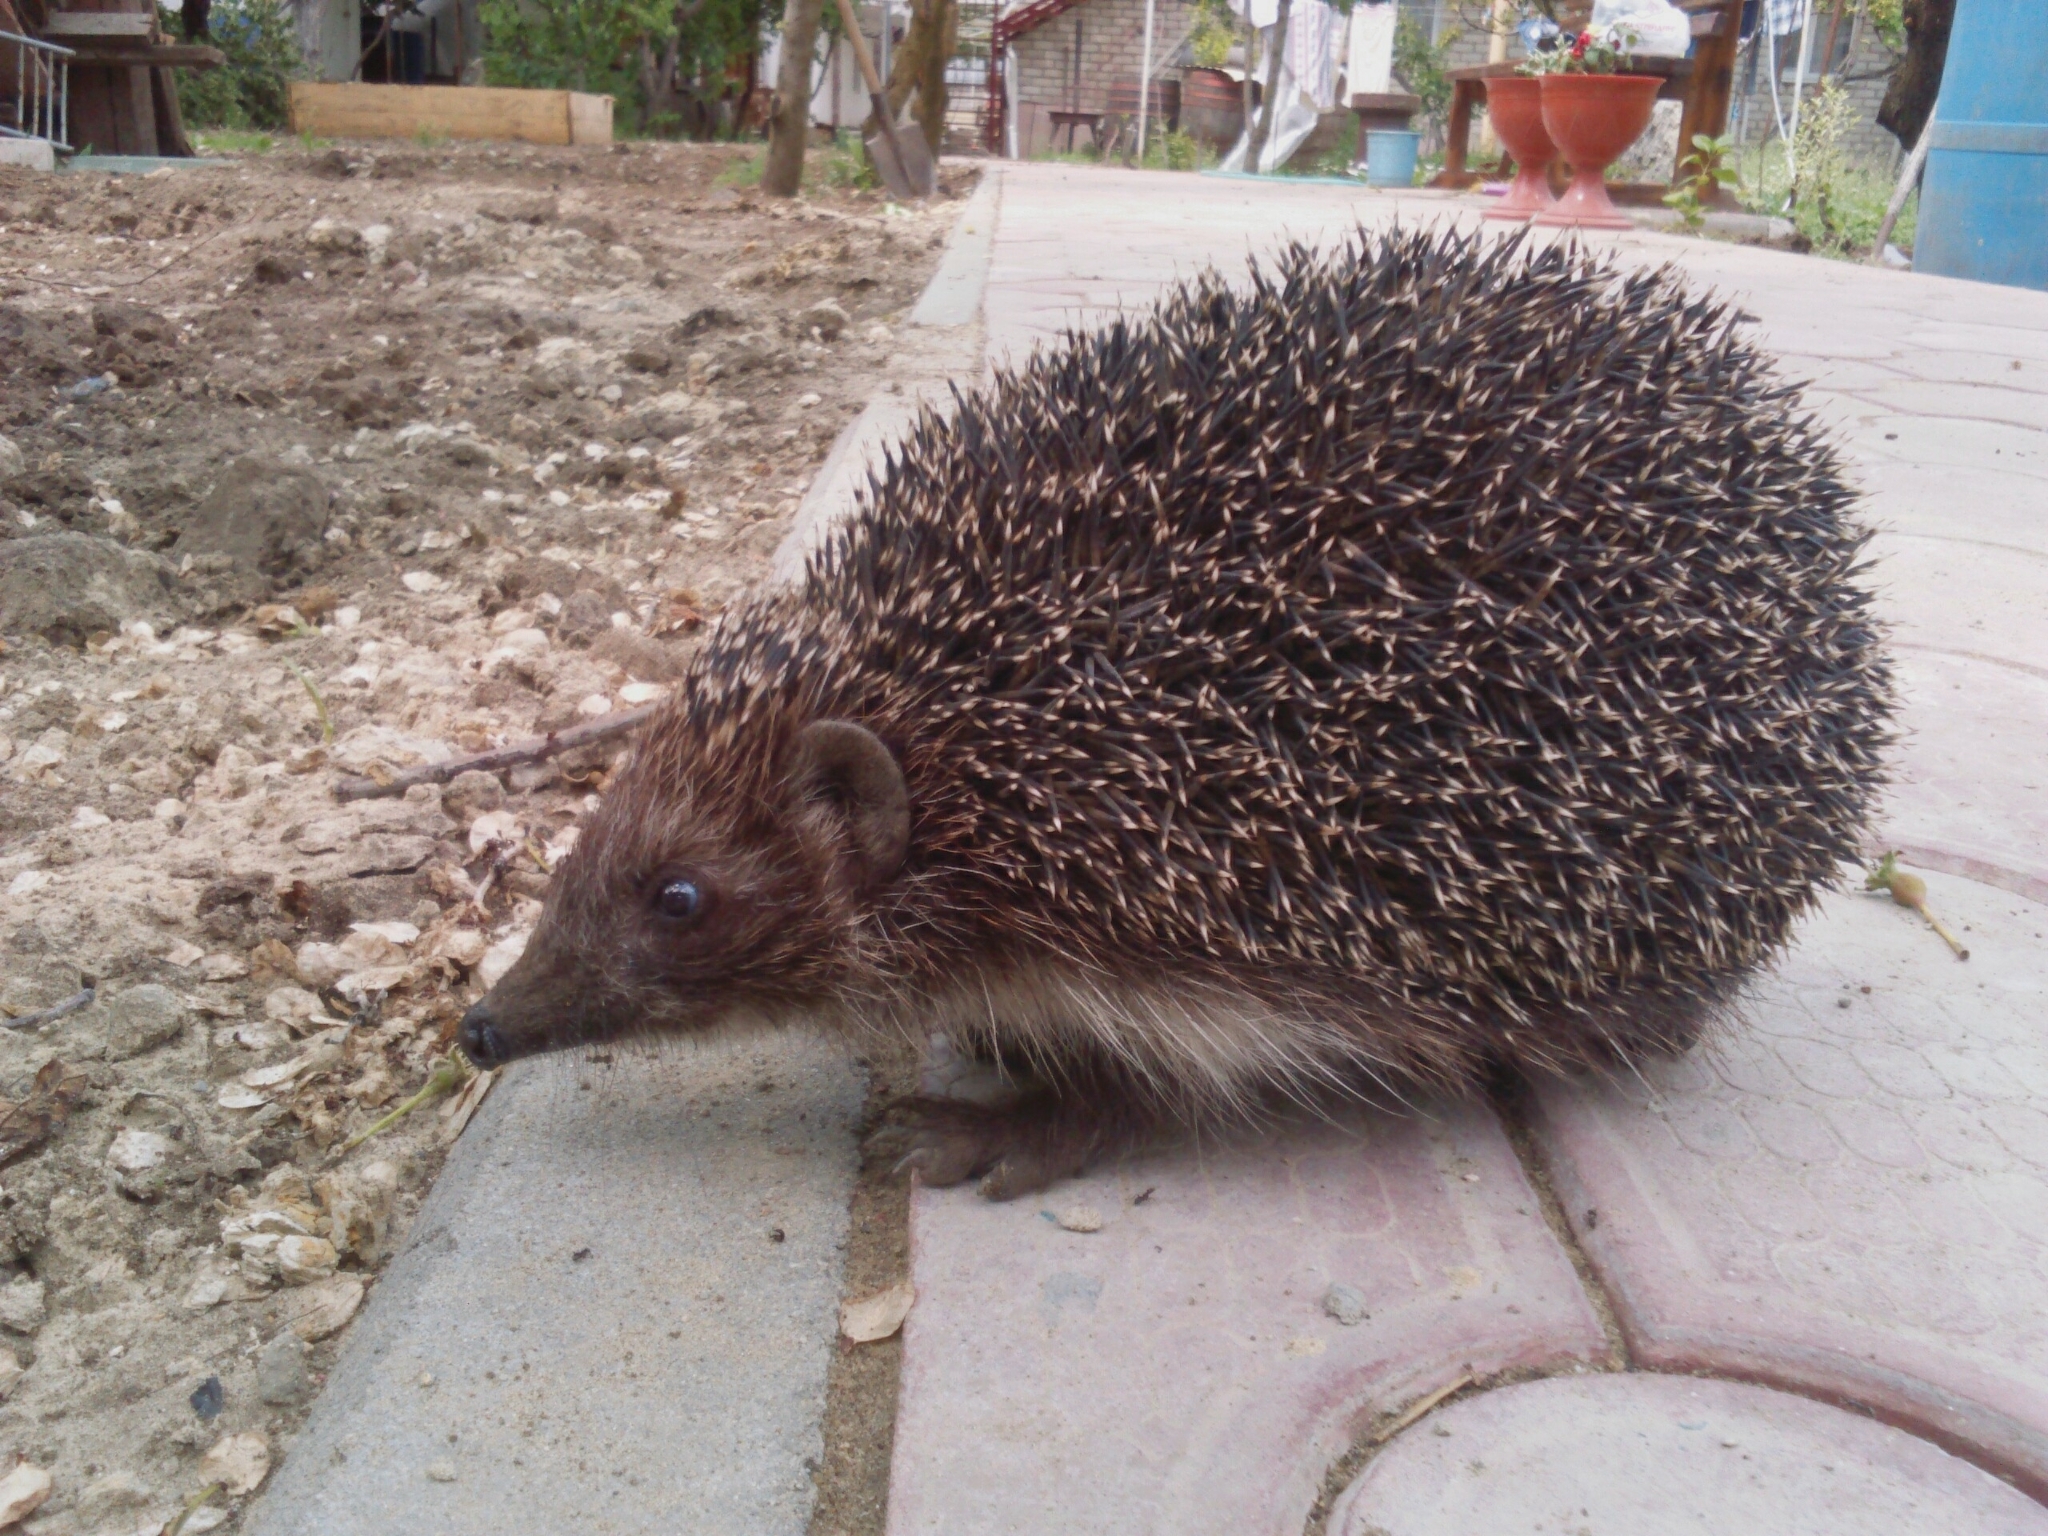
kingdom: Animalia
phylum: Chordata
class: Mammalia
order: Erinaceomorpha
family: Erinaceidae
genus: Erinaceus
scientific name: Erinaceus roumanicus
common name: Northern white-breasted hedgehog
